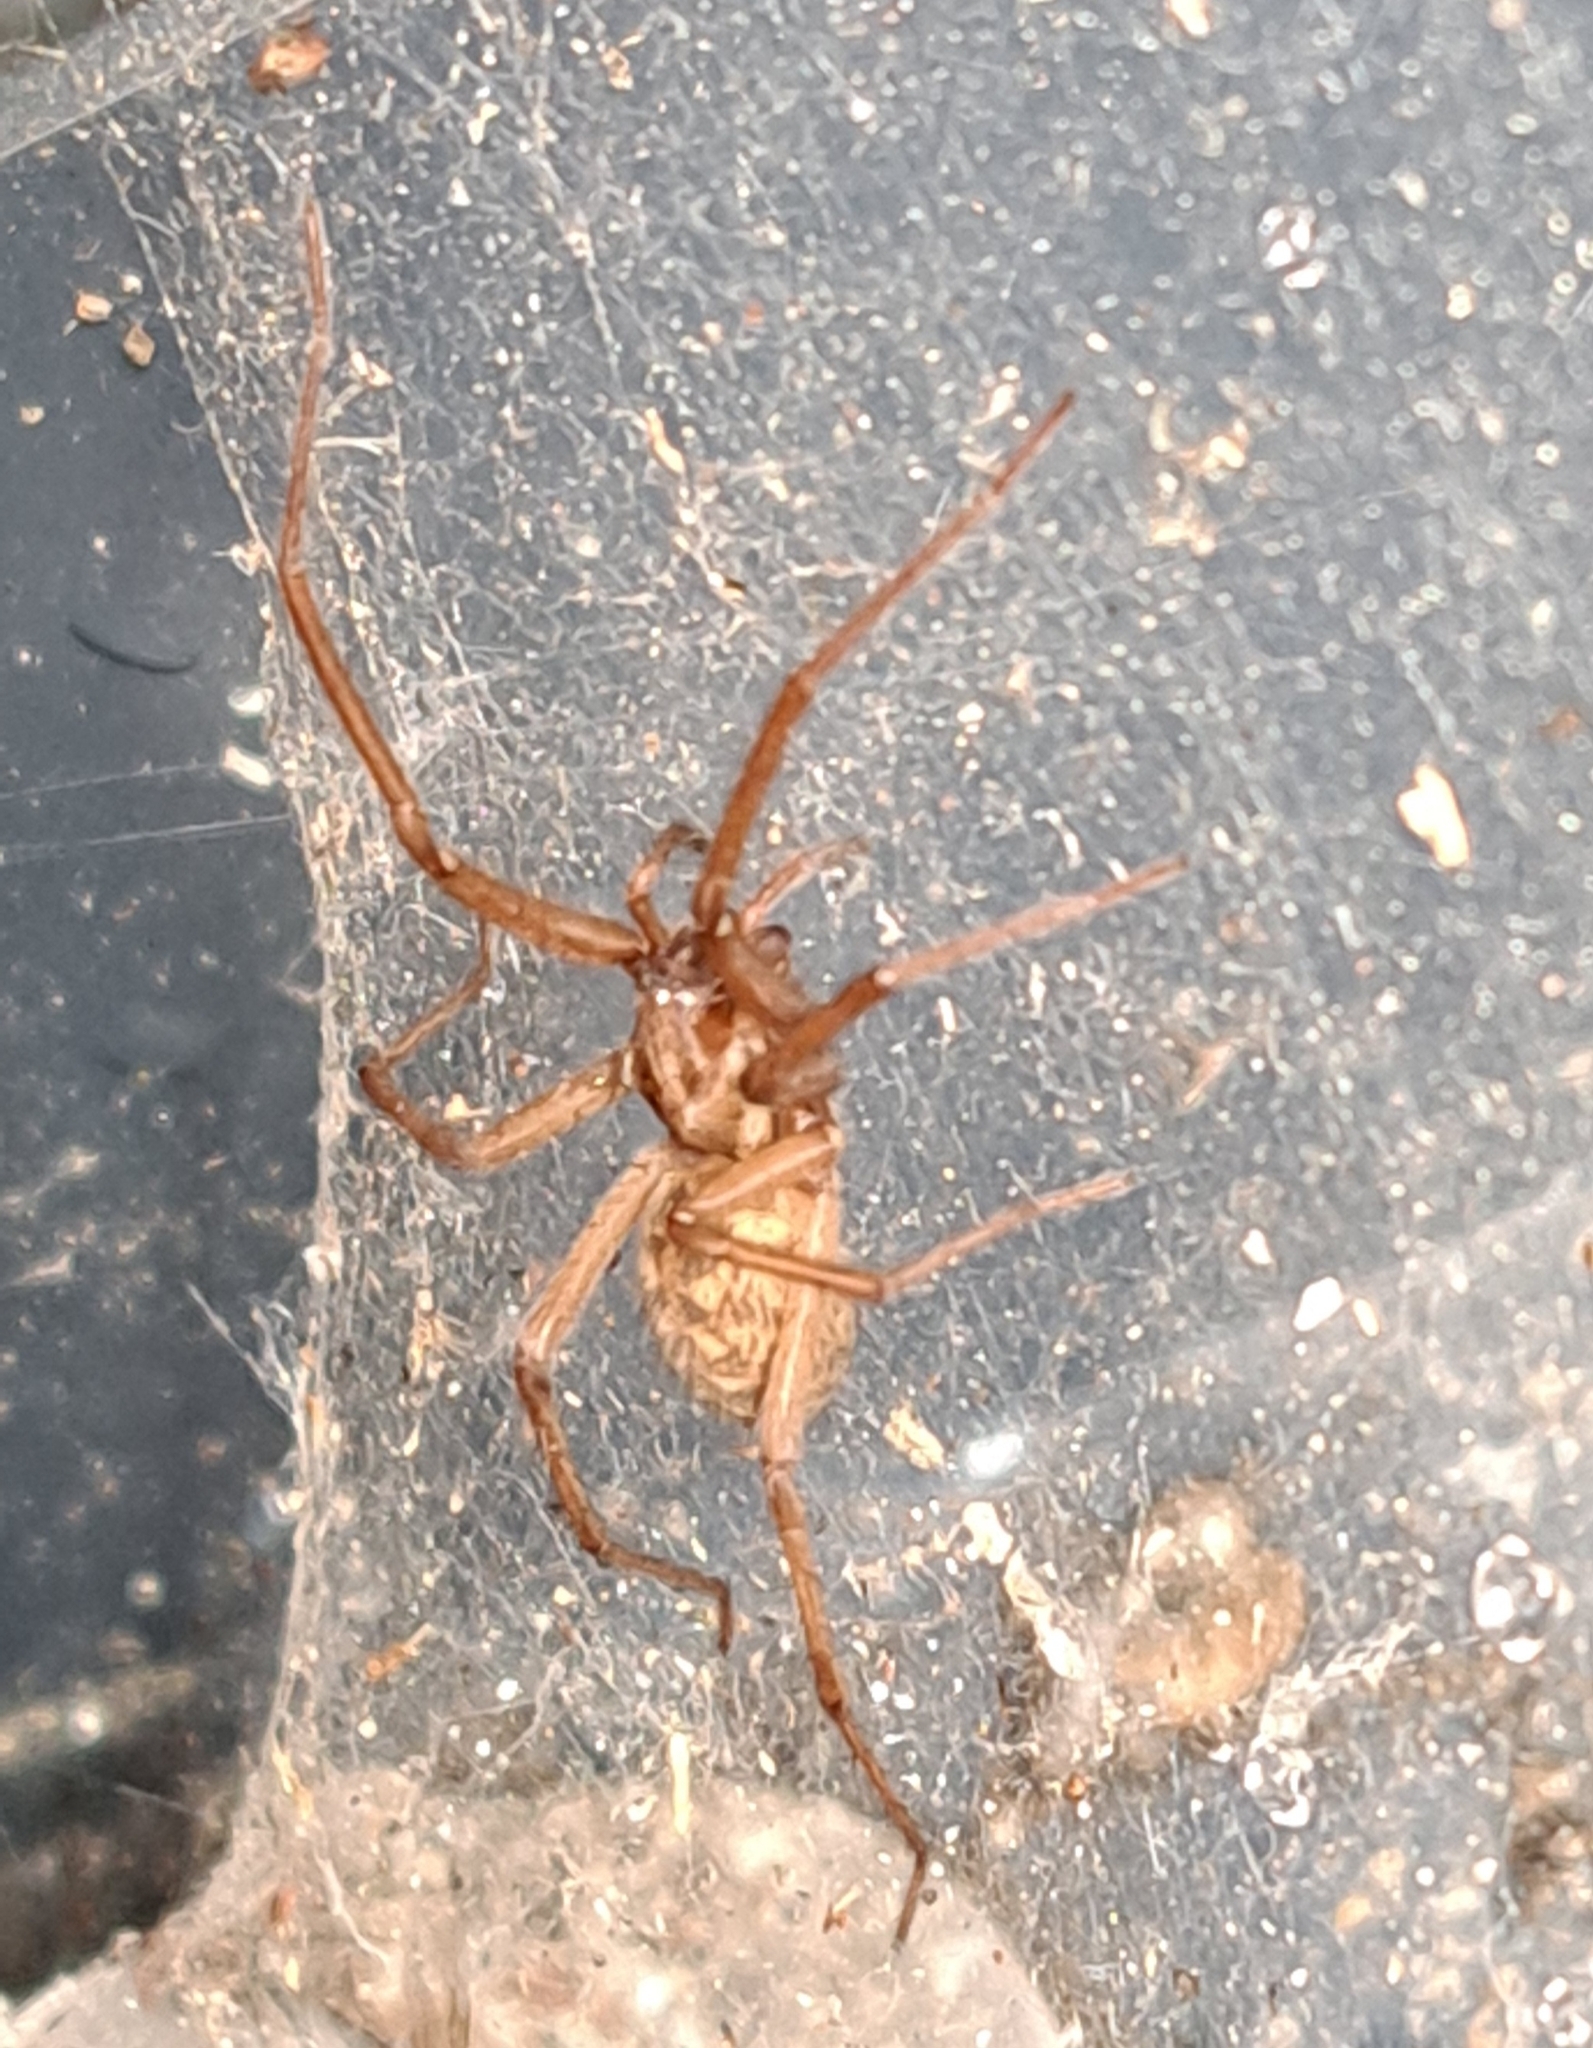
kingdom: Animalia
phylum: Arthropoda
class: Arachnida
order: Araneae
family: Agelenidae
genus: Eratigena
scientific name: Eratigena atrica
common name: Giant house spider
